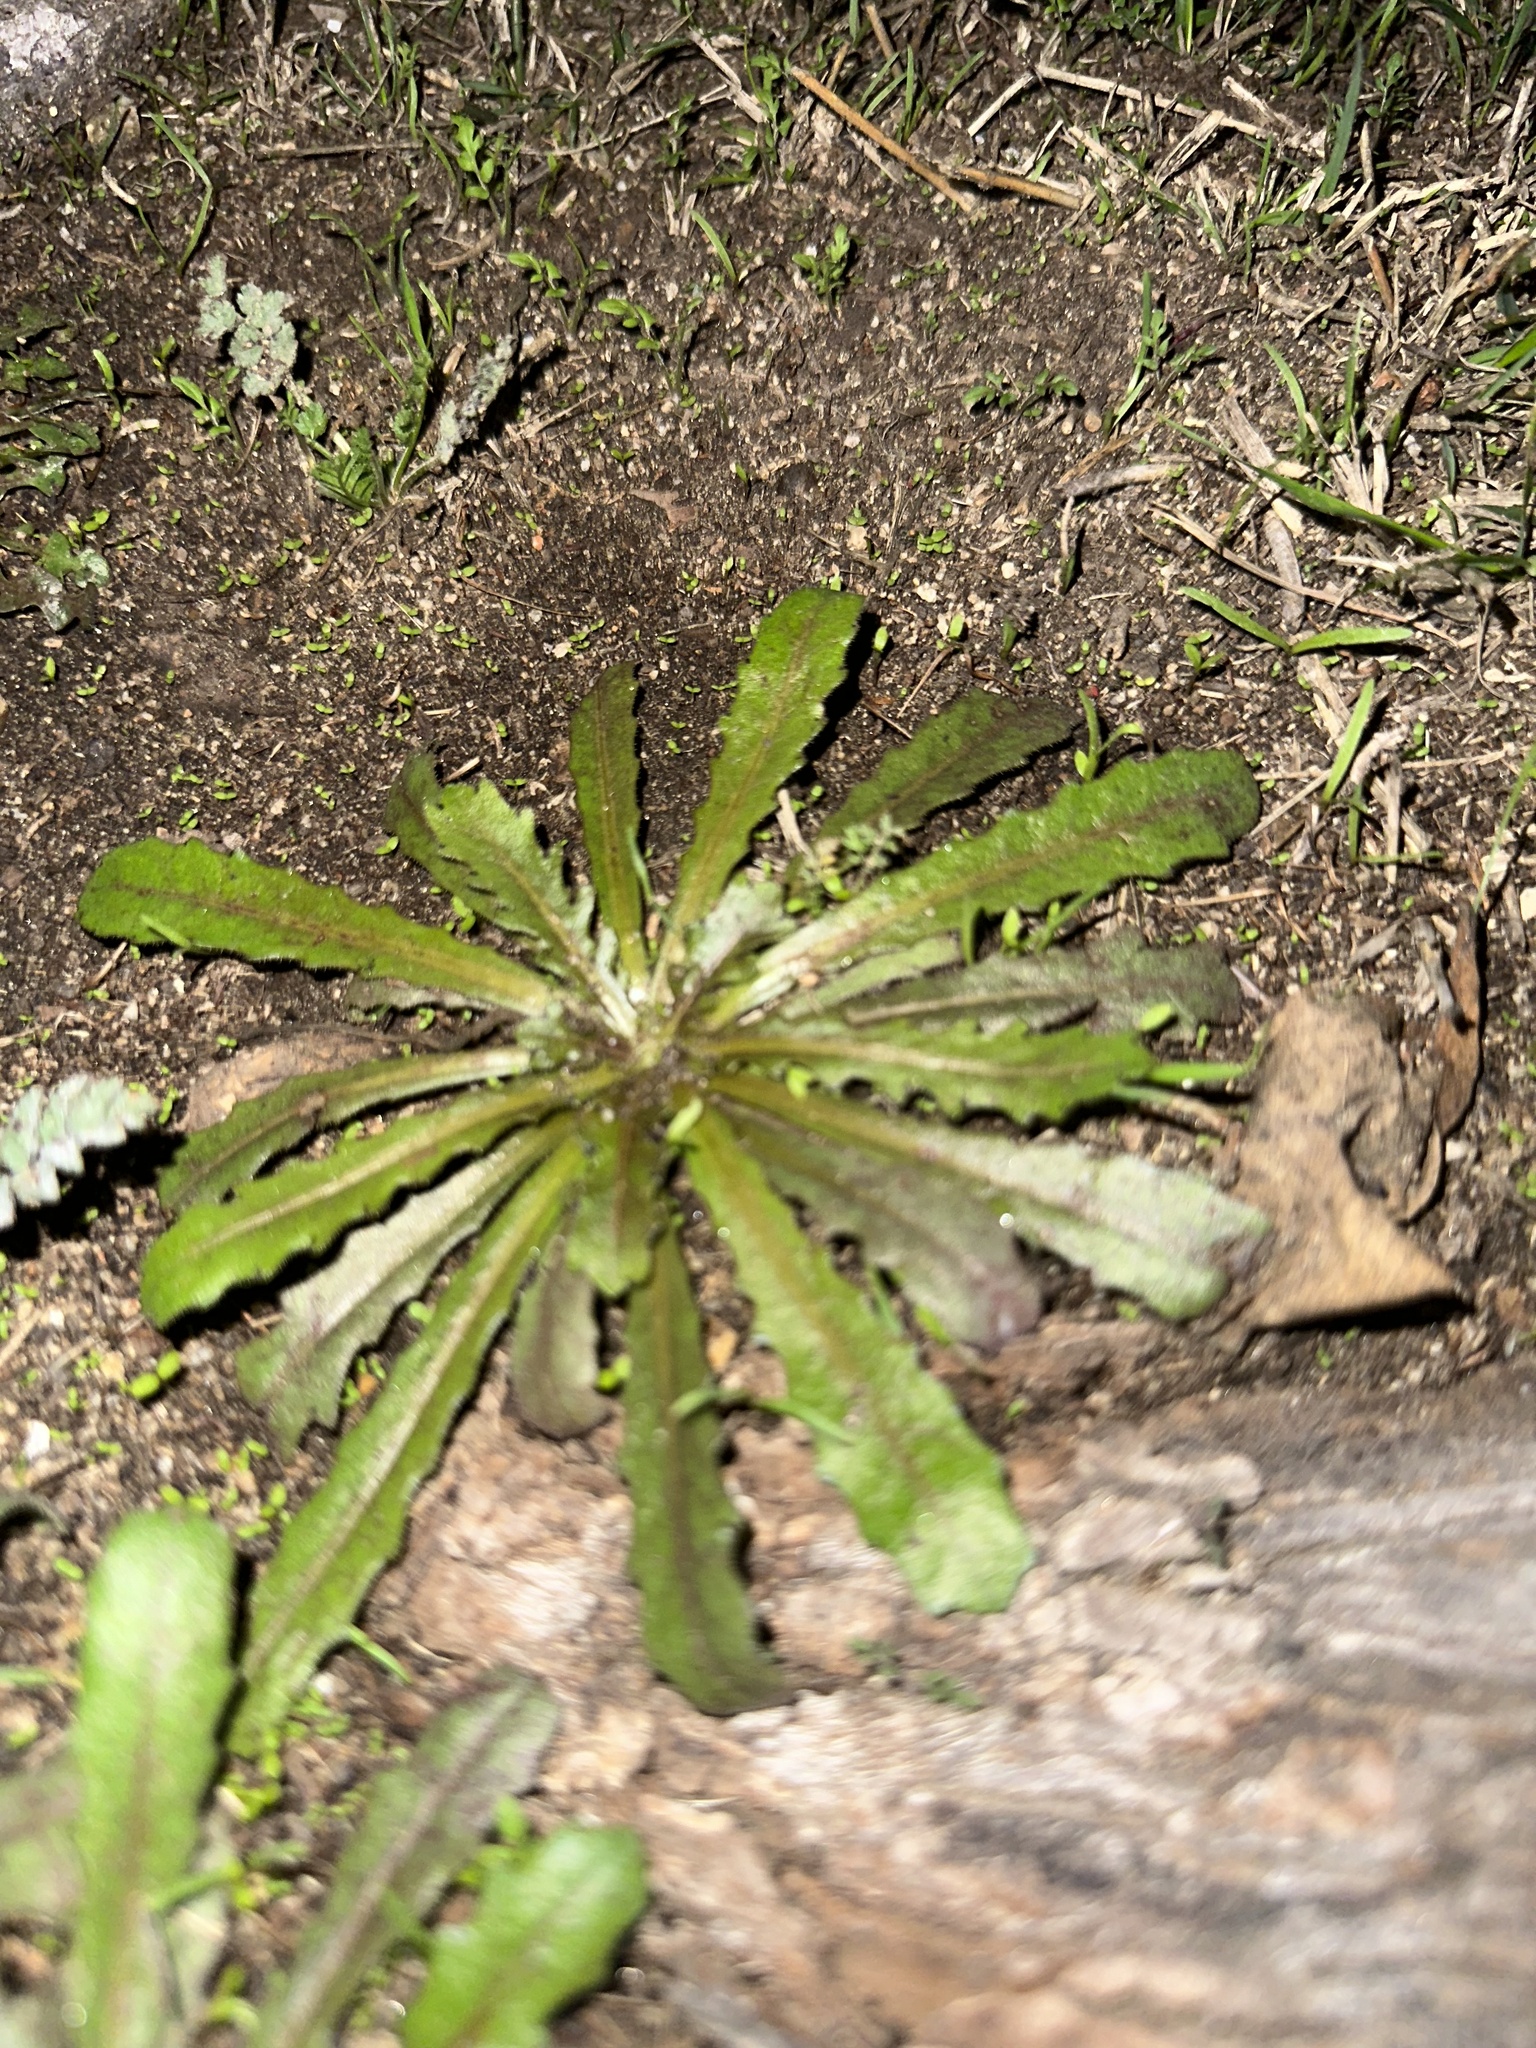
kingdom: Plantae
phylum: Tracheophyta
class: Magnoliopsida
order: Asterales
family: Asteraceae
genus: Hypochaeris
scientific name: Hypochaeris glabra
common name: Smooth catsear
